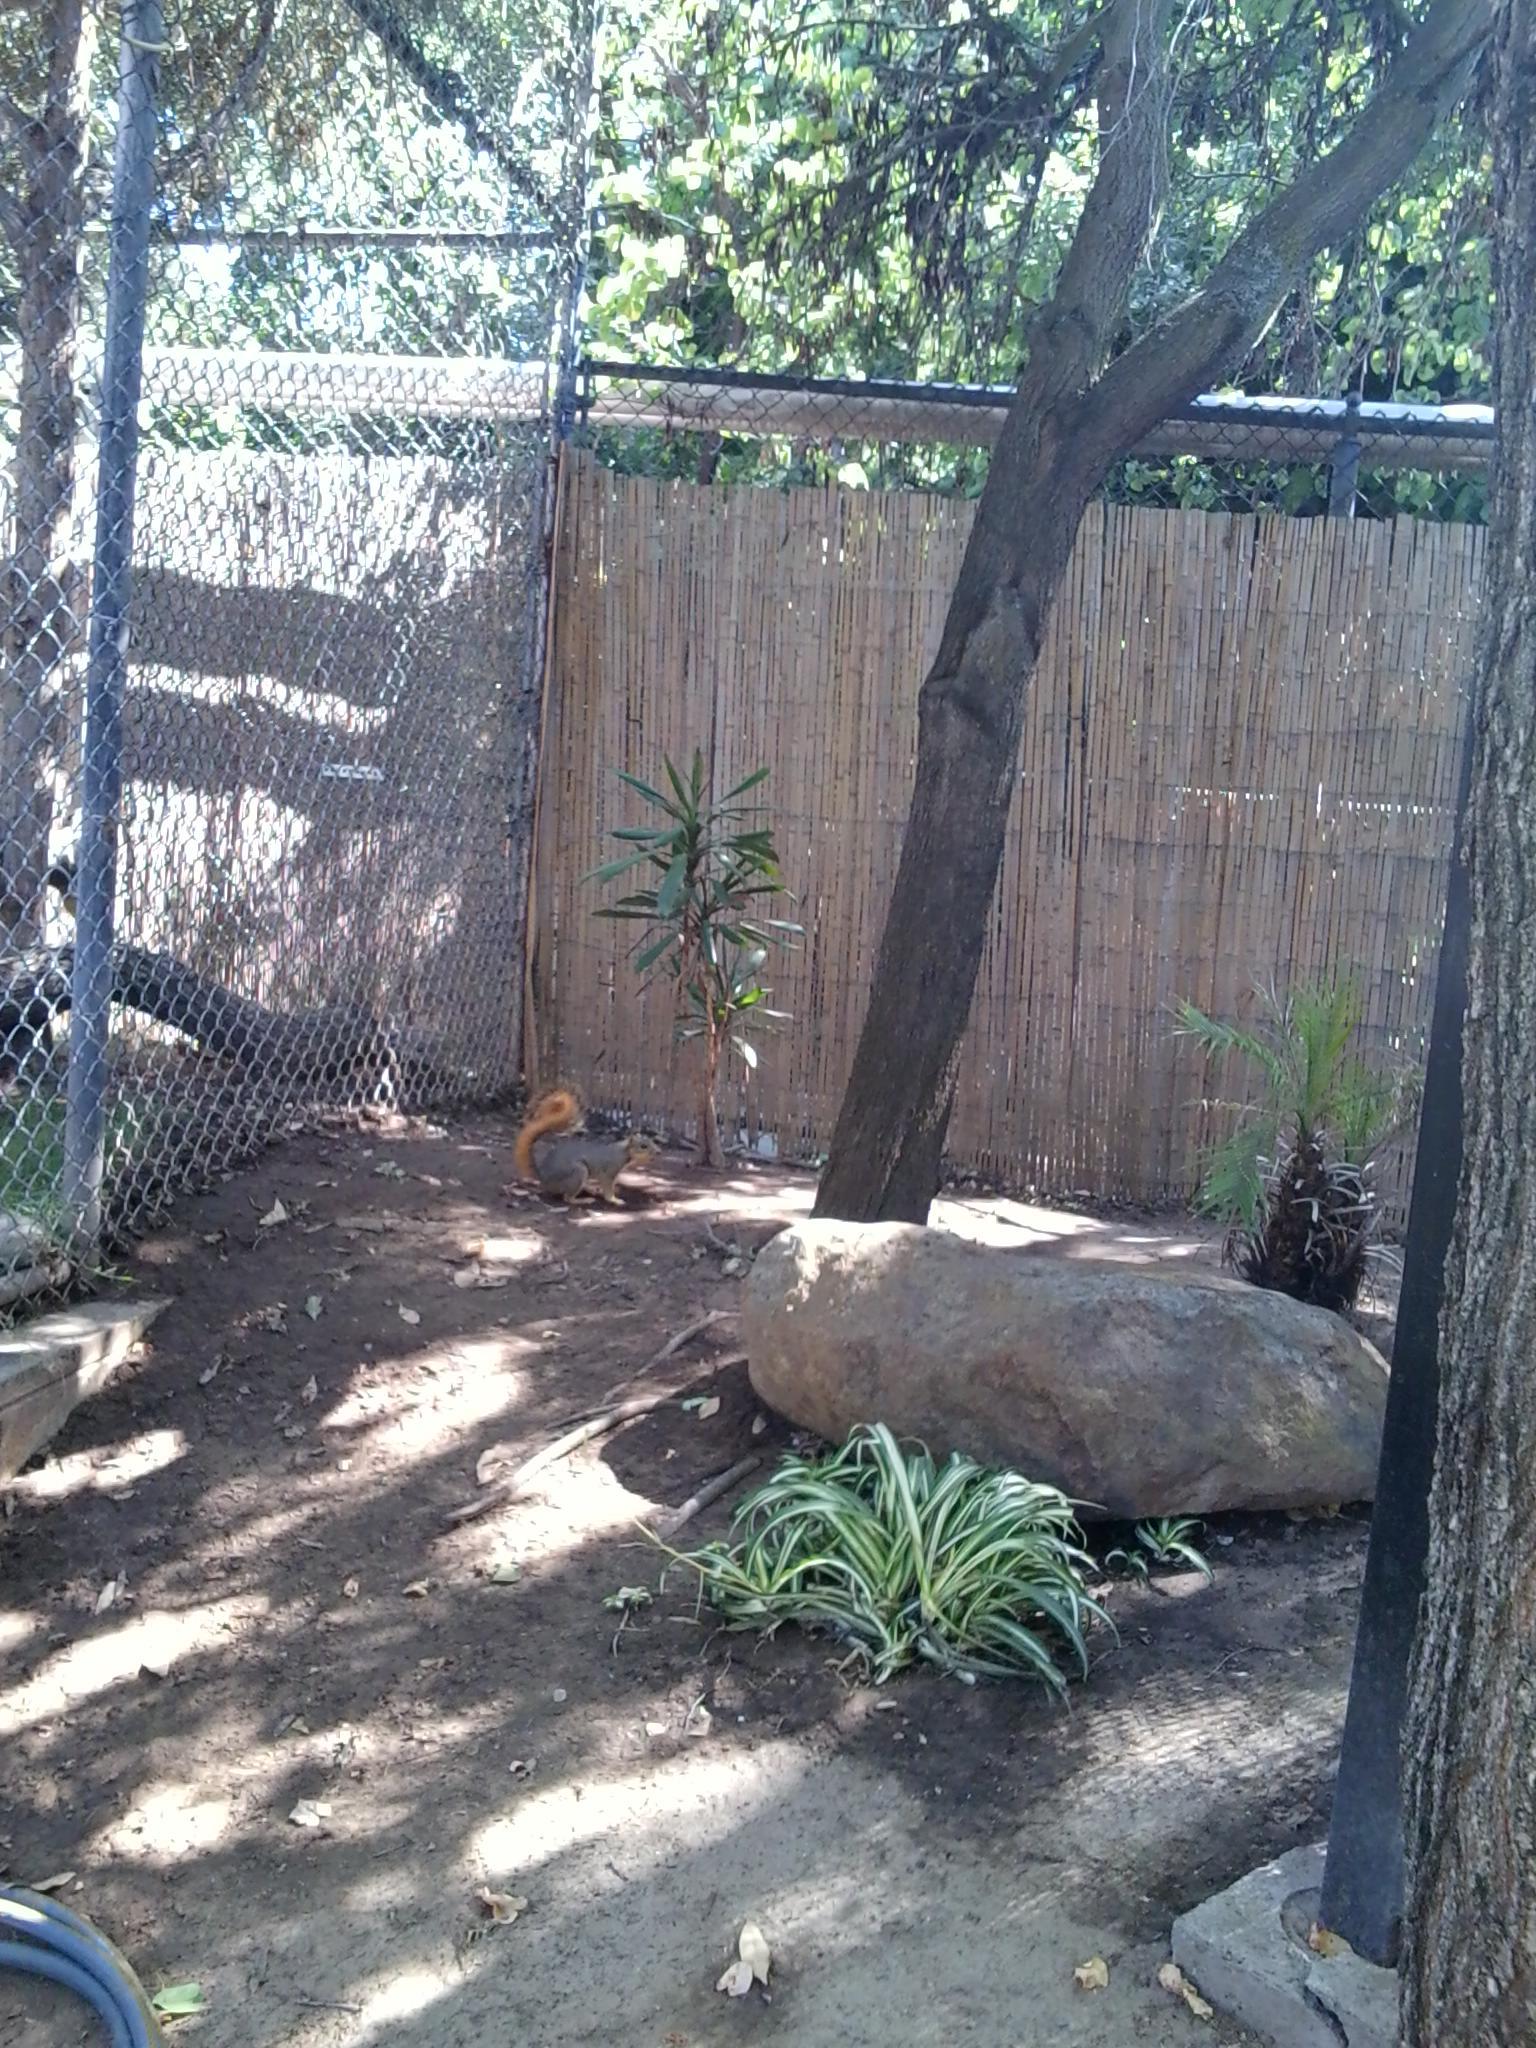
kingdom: Animalia
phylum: Chordata
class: Mammalia
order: Rodentia
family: Sciuridae
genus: Sciurus
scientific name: Sciurus niger
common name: Fox squirrel
